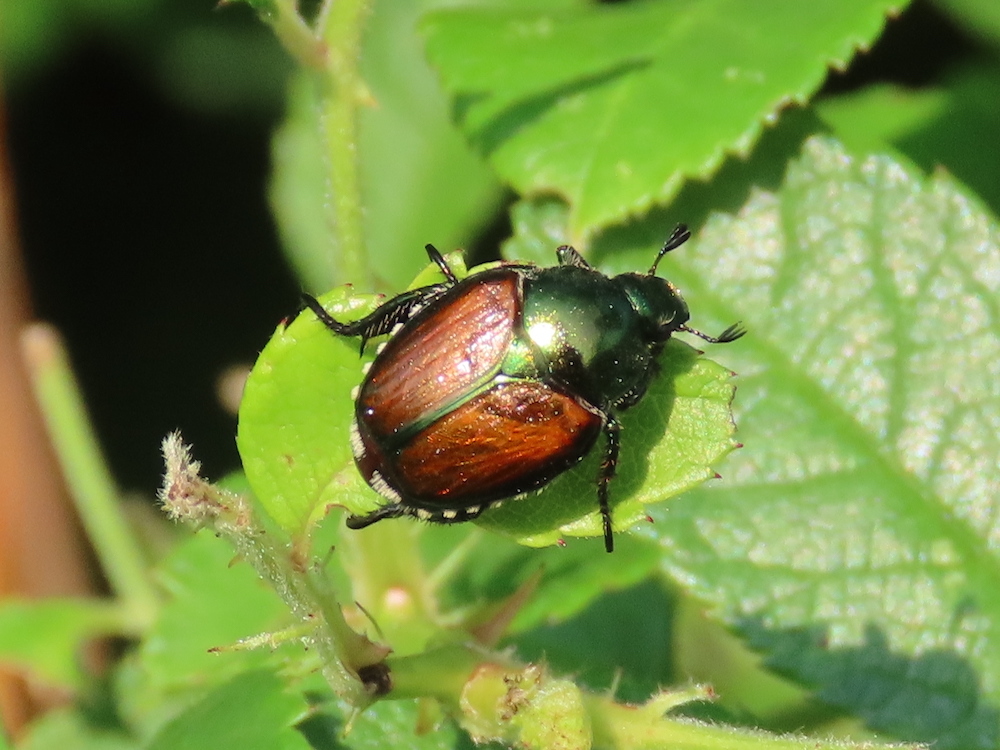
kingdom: Animalia
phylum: Arthropoda
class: Insecta
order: Coleoptera
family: Scarabaeidae
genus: Popillia
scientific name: Popillia japonica
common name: Japanese beetle
